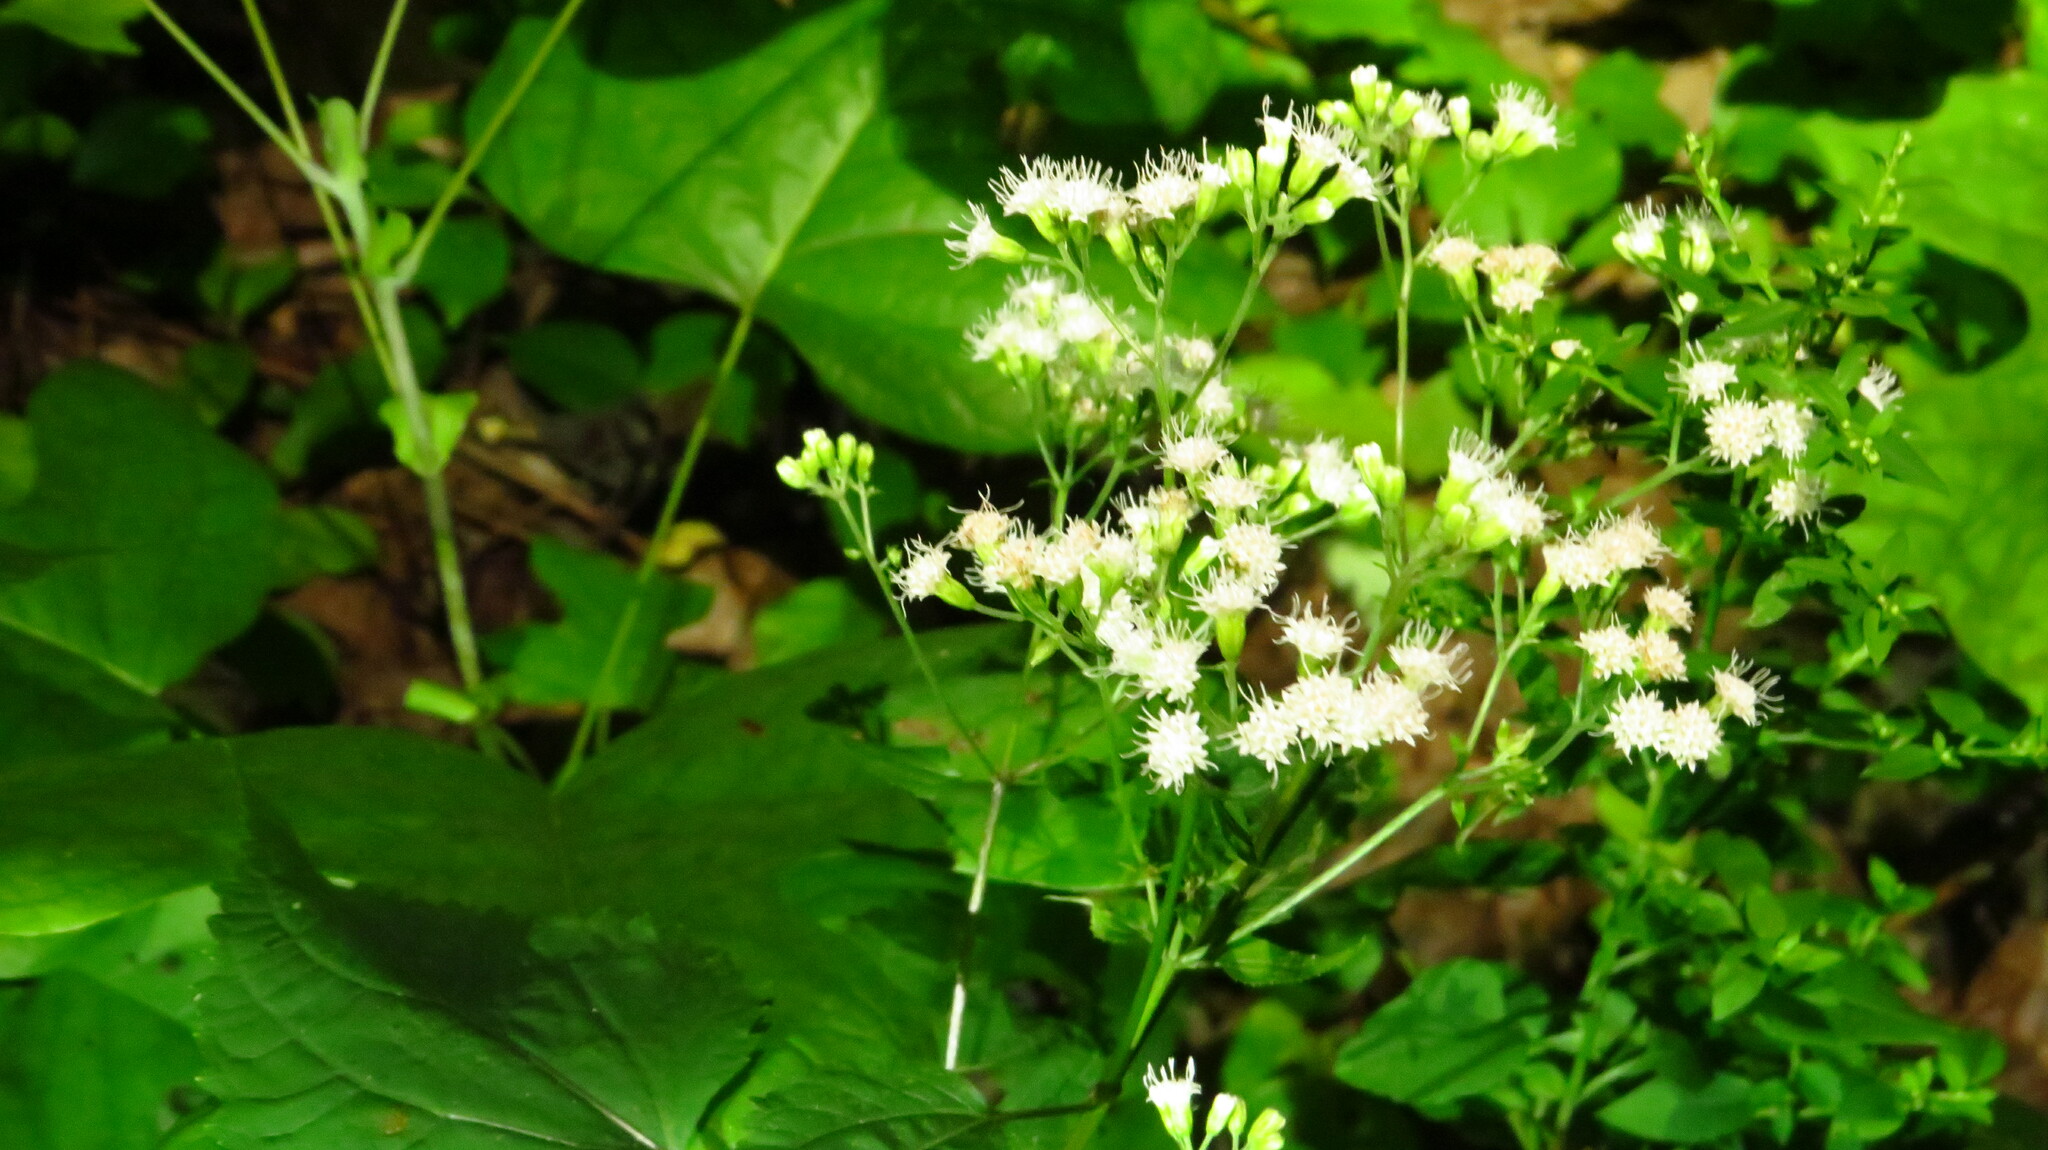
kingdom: Plantae
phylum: Tracheophyta
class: Magnoliopsida
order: Asterales
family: Asteraceae
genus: Ageratina
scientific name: Ageratina altissima
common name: White snakeroot
